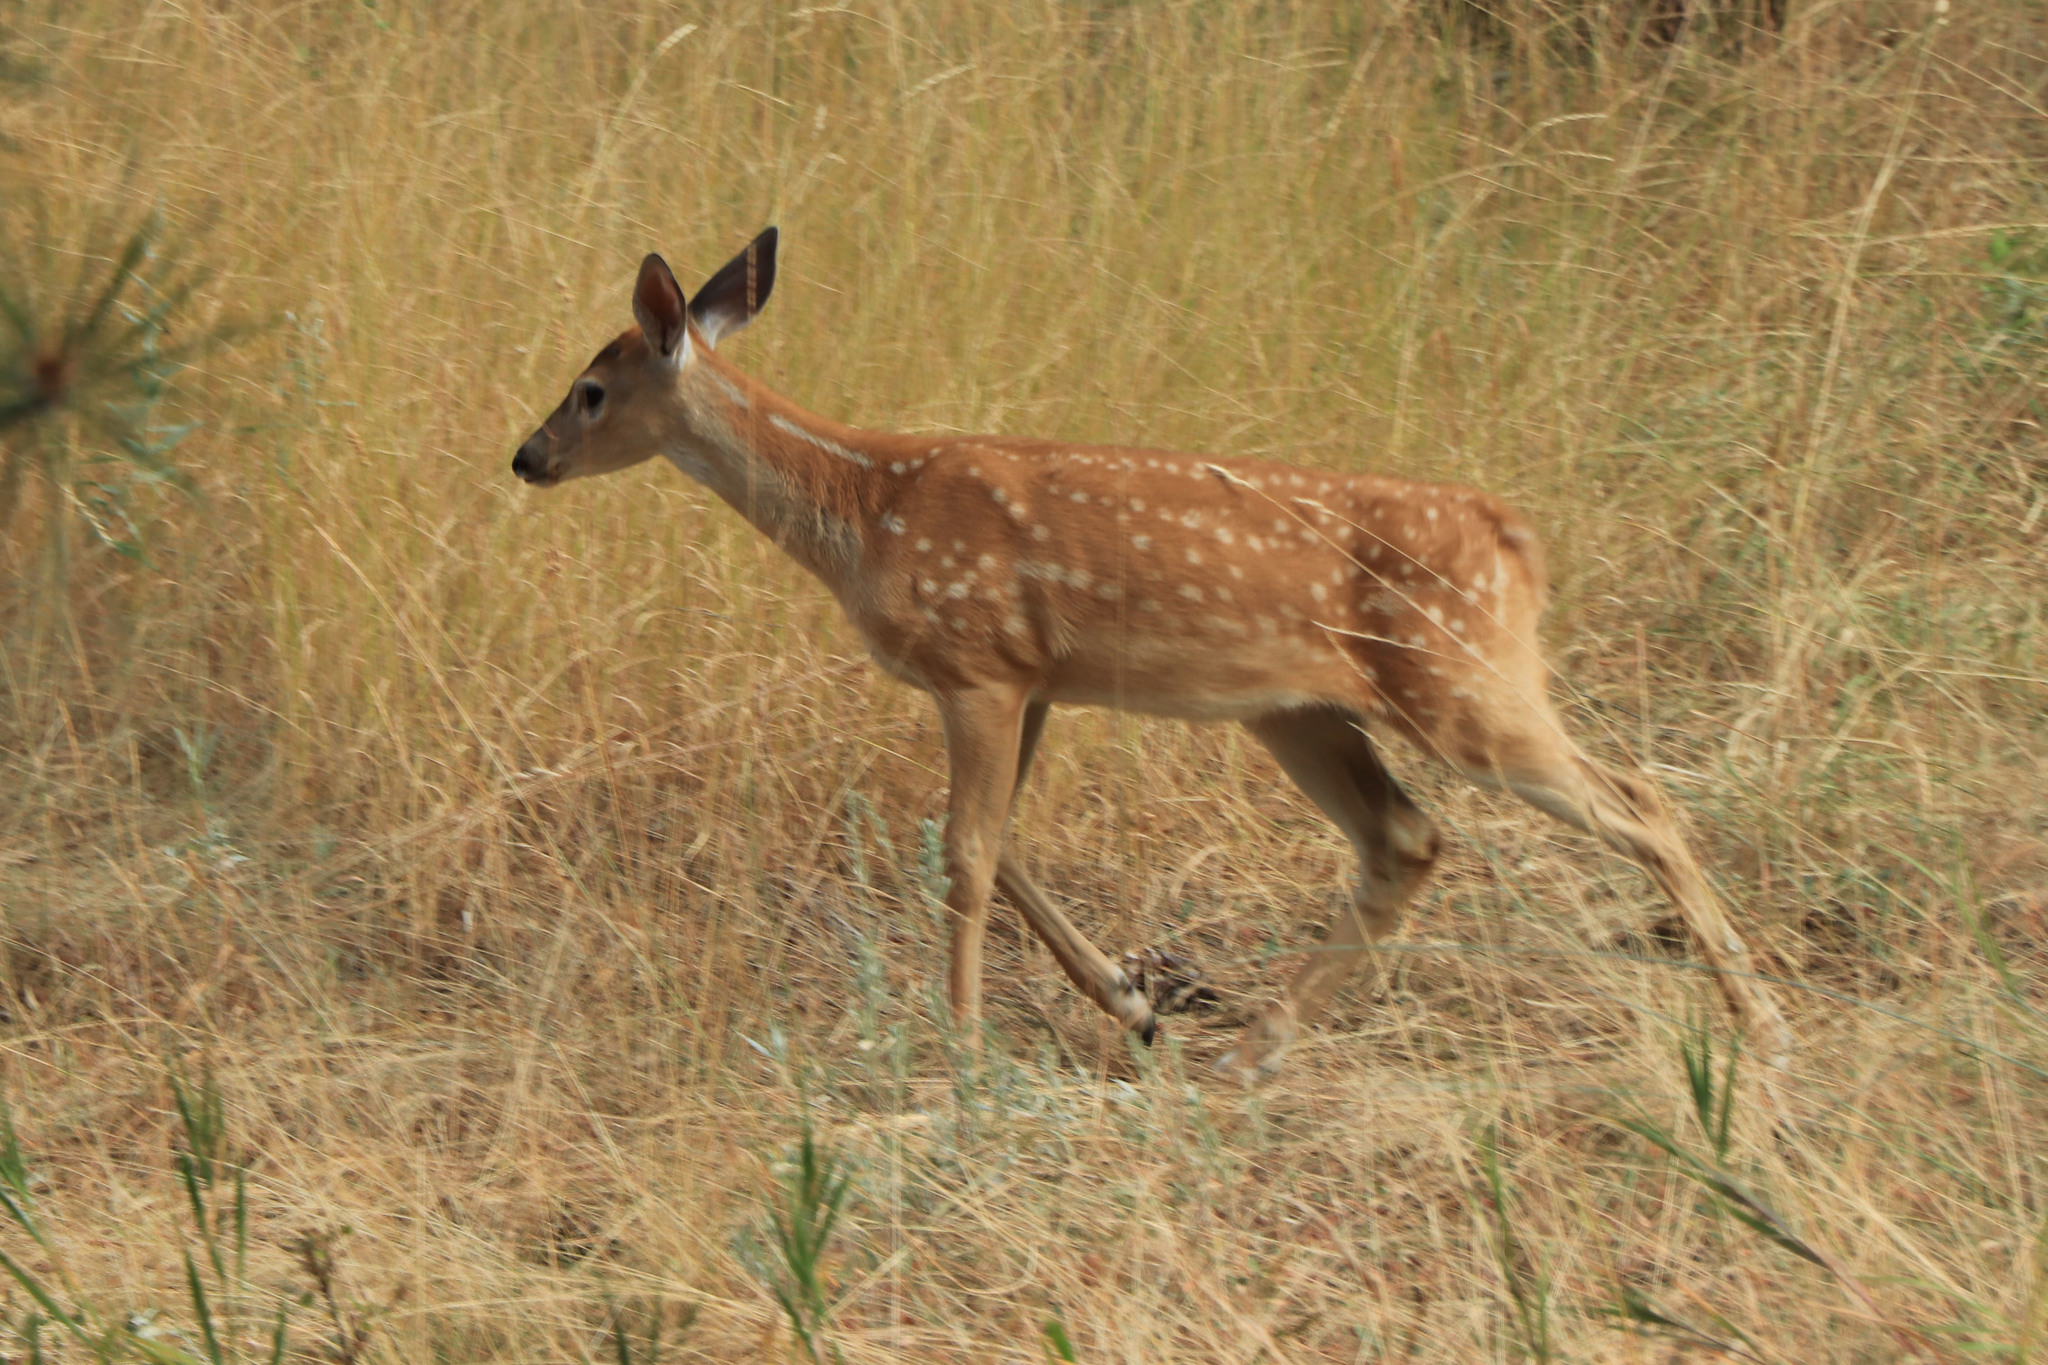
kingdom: Animalia
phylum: Chordata
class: Mammalia
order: Artiodactyla
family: Cervidae
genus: Odocoileus
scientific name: Odocoileus virginianus
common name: White-tailed deer
